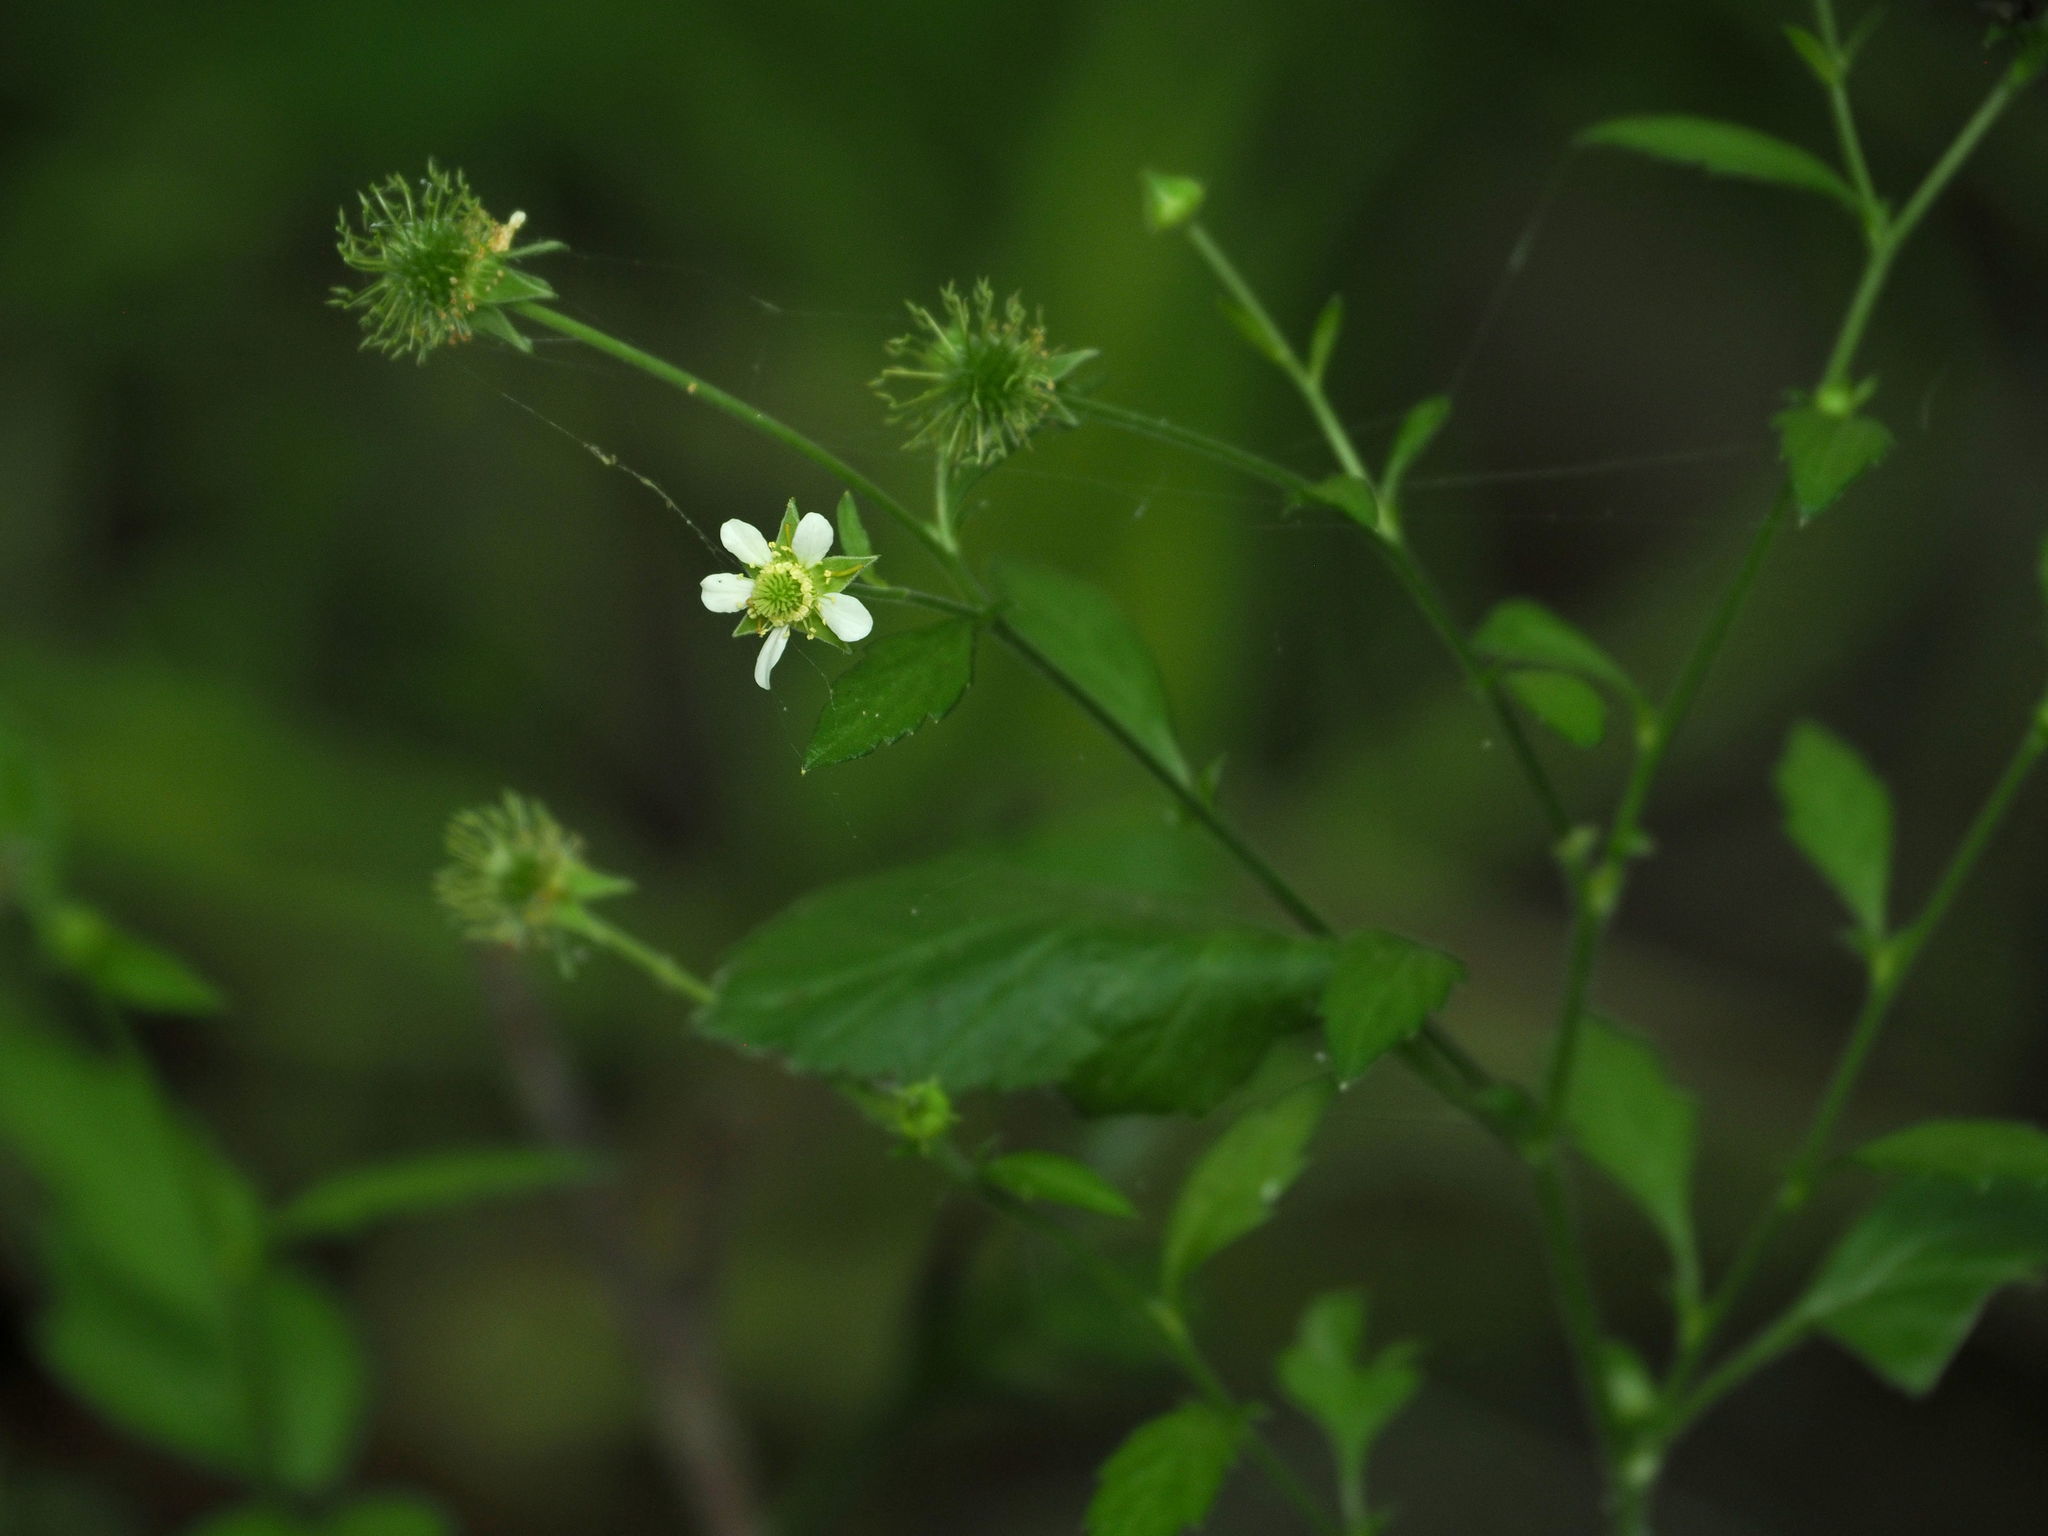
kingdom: Plantae
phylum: Tracheophyta
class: Magnoliopsida
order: Rosales
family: Rosaceae
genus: Geum
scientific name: Geum canadense
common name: White avens
